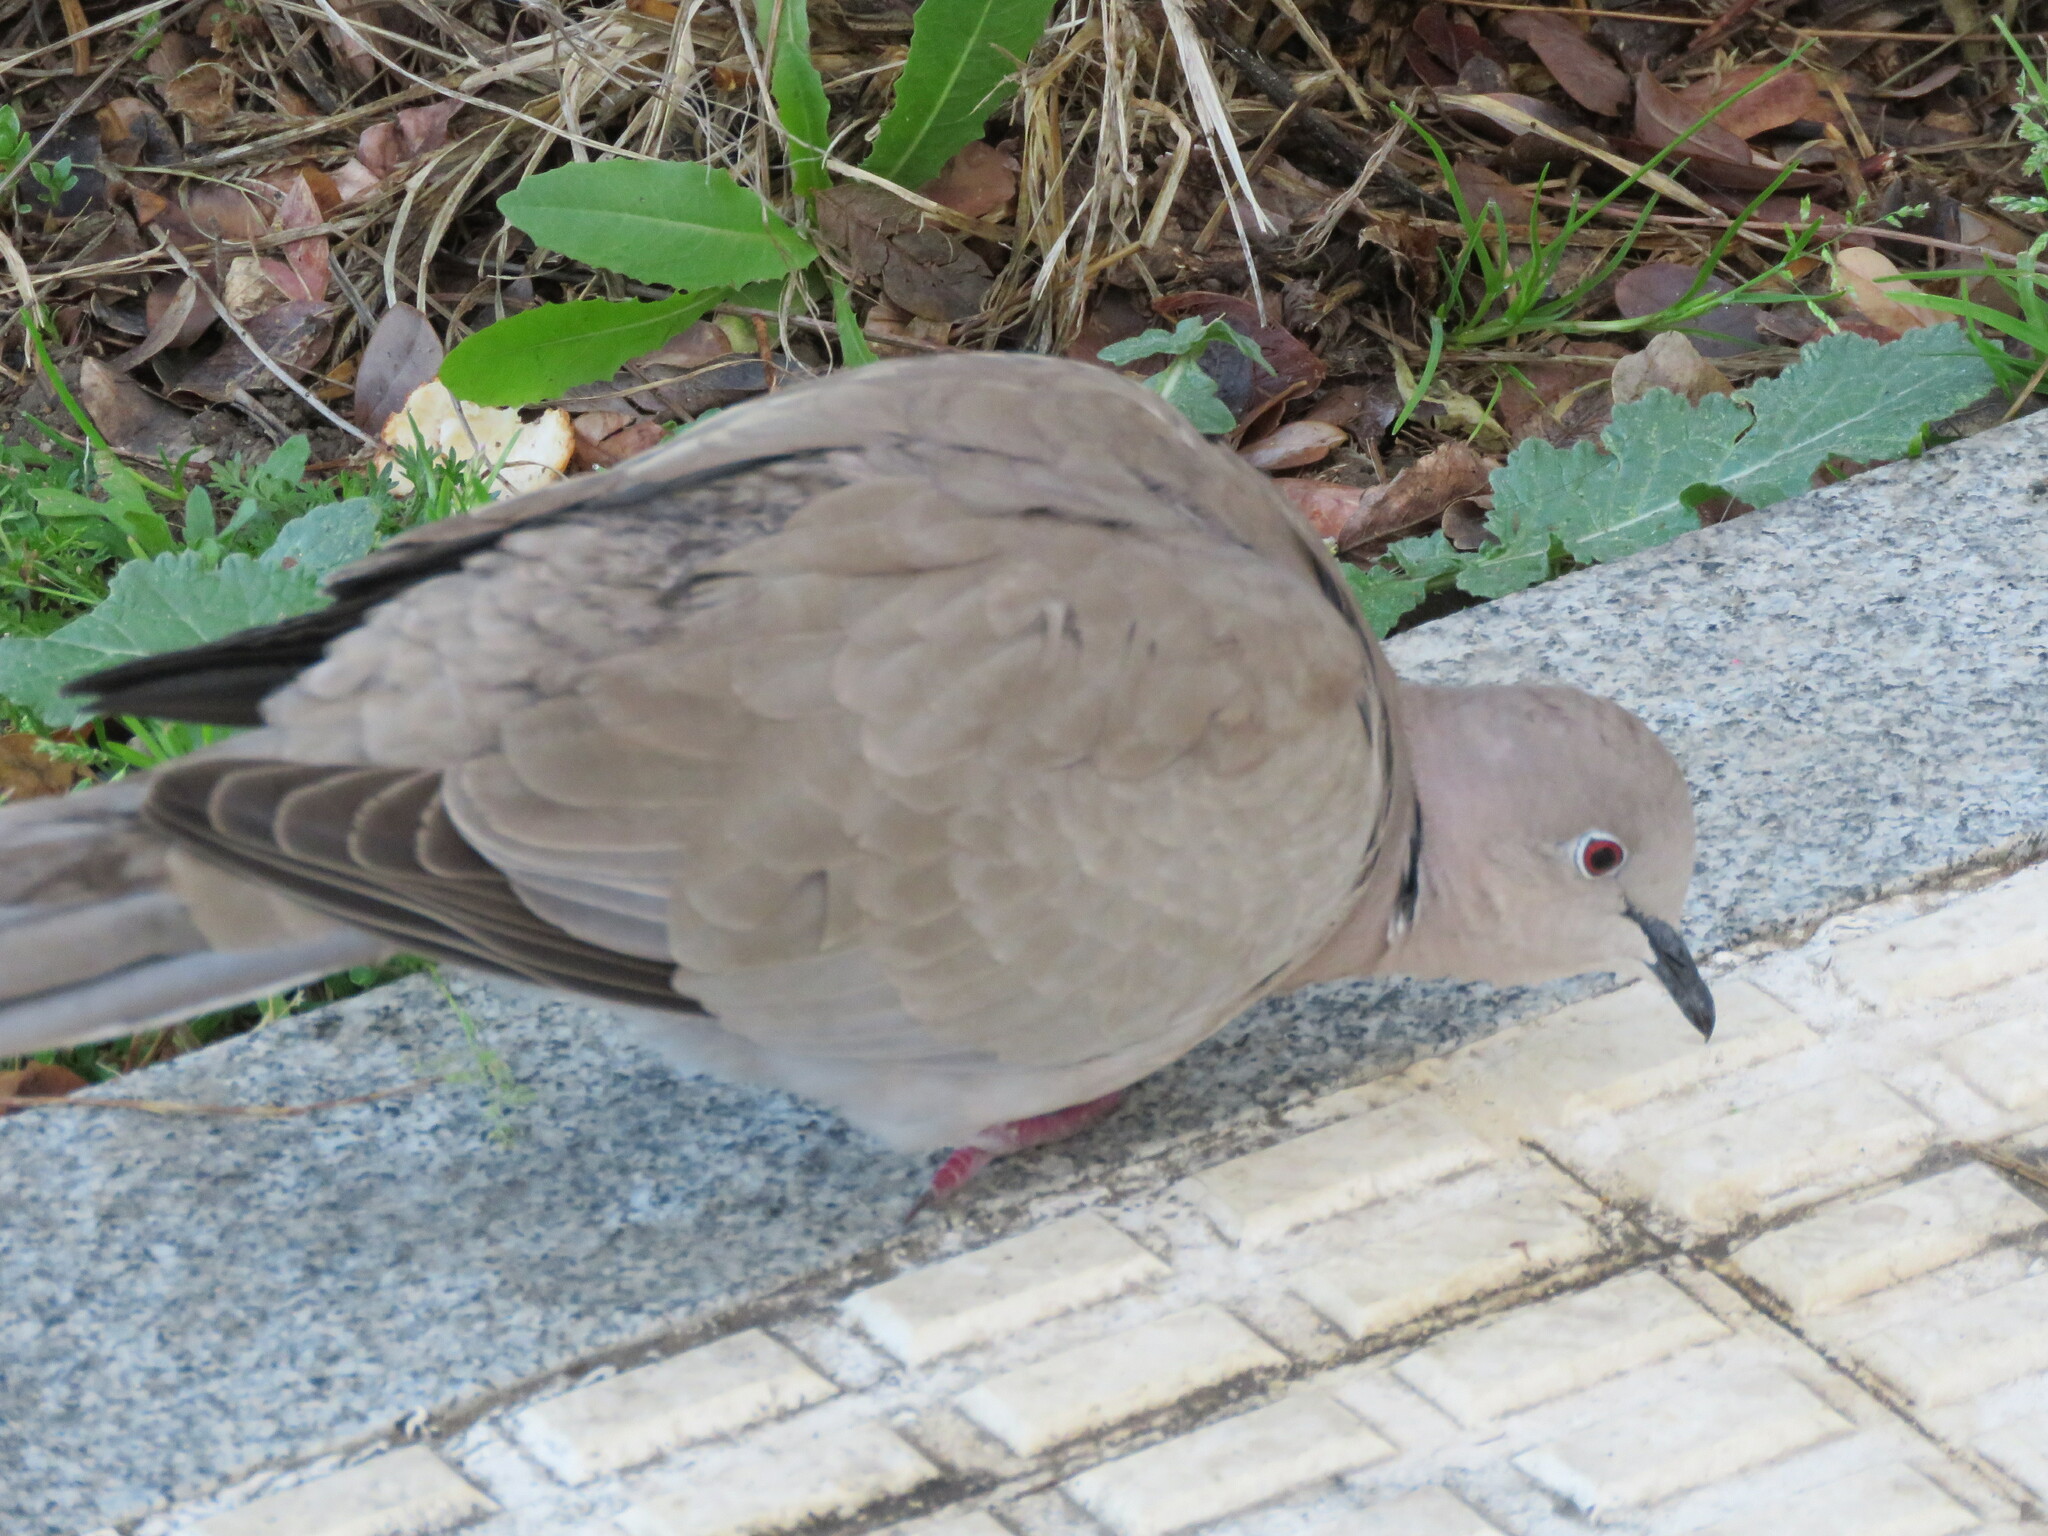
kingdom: Animalia
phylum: Chordata
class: Aves
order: Columbiformes
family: Columbidae
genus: Streptopelia
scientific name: Streptopelia decaocto
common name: Eurasian collared dove
